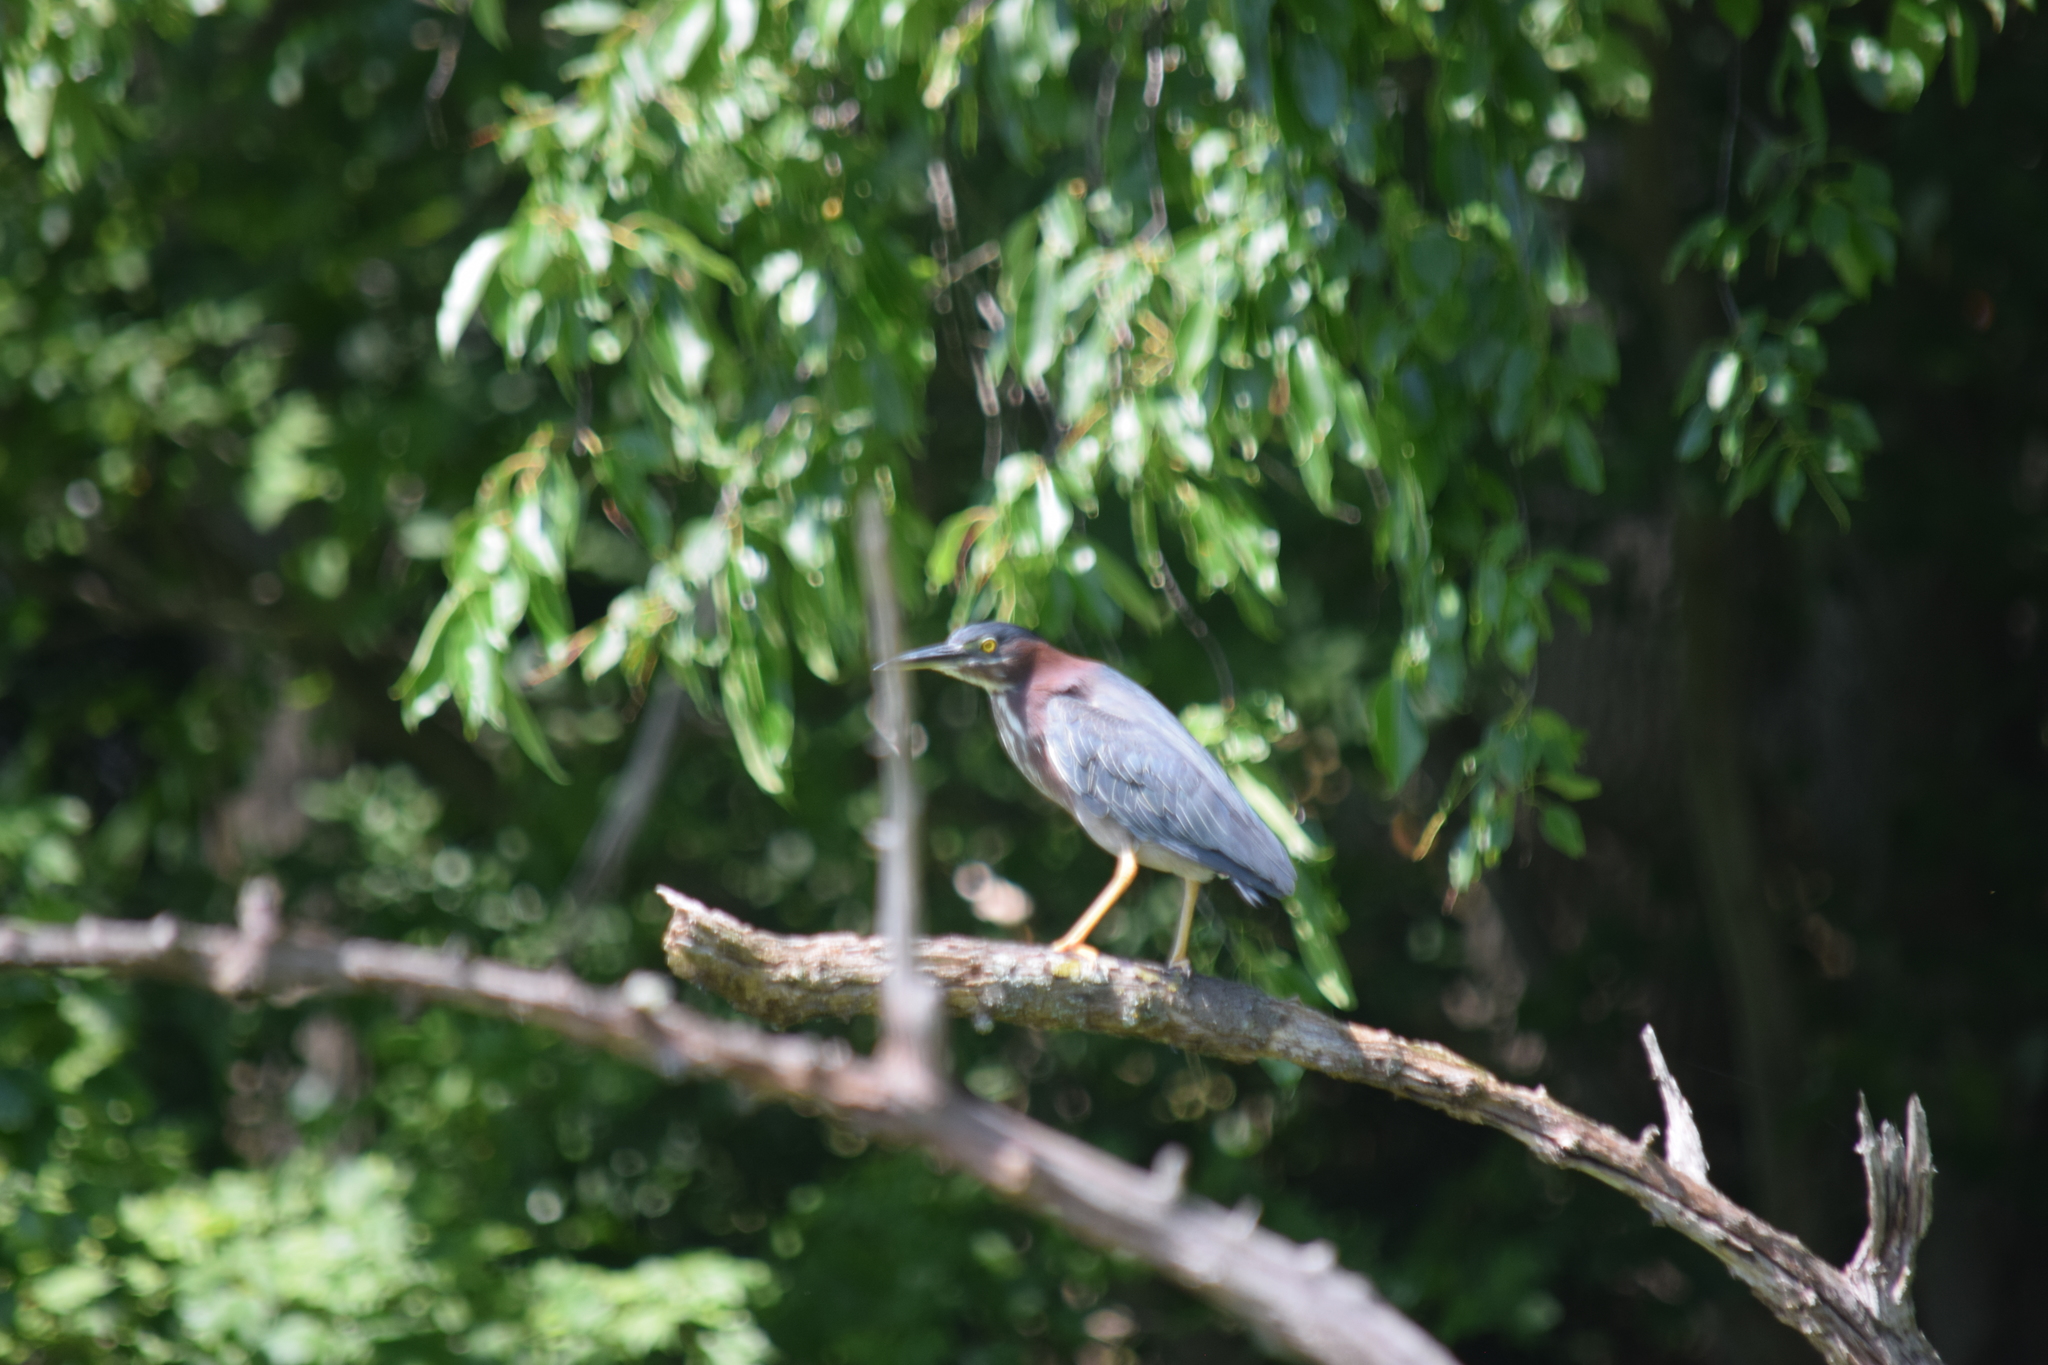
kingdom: Animalia
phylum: Chordata
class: Aves
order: Pelecaniformes
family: Ardeidae
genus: Butorides
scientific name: Butorides virescens
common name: Green heron
